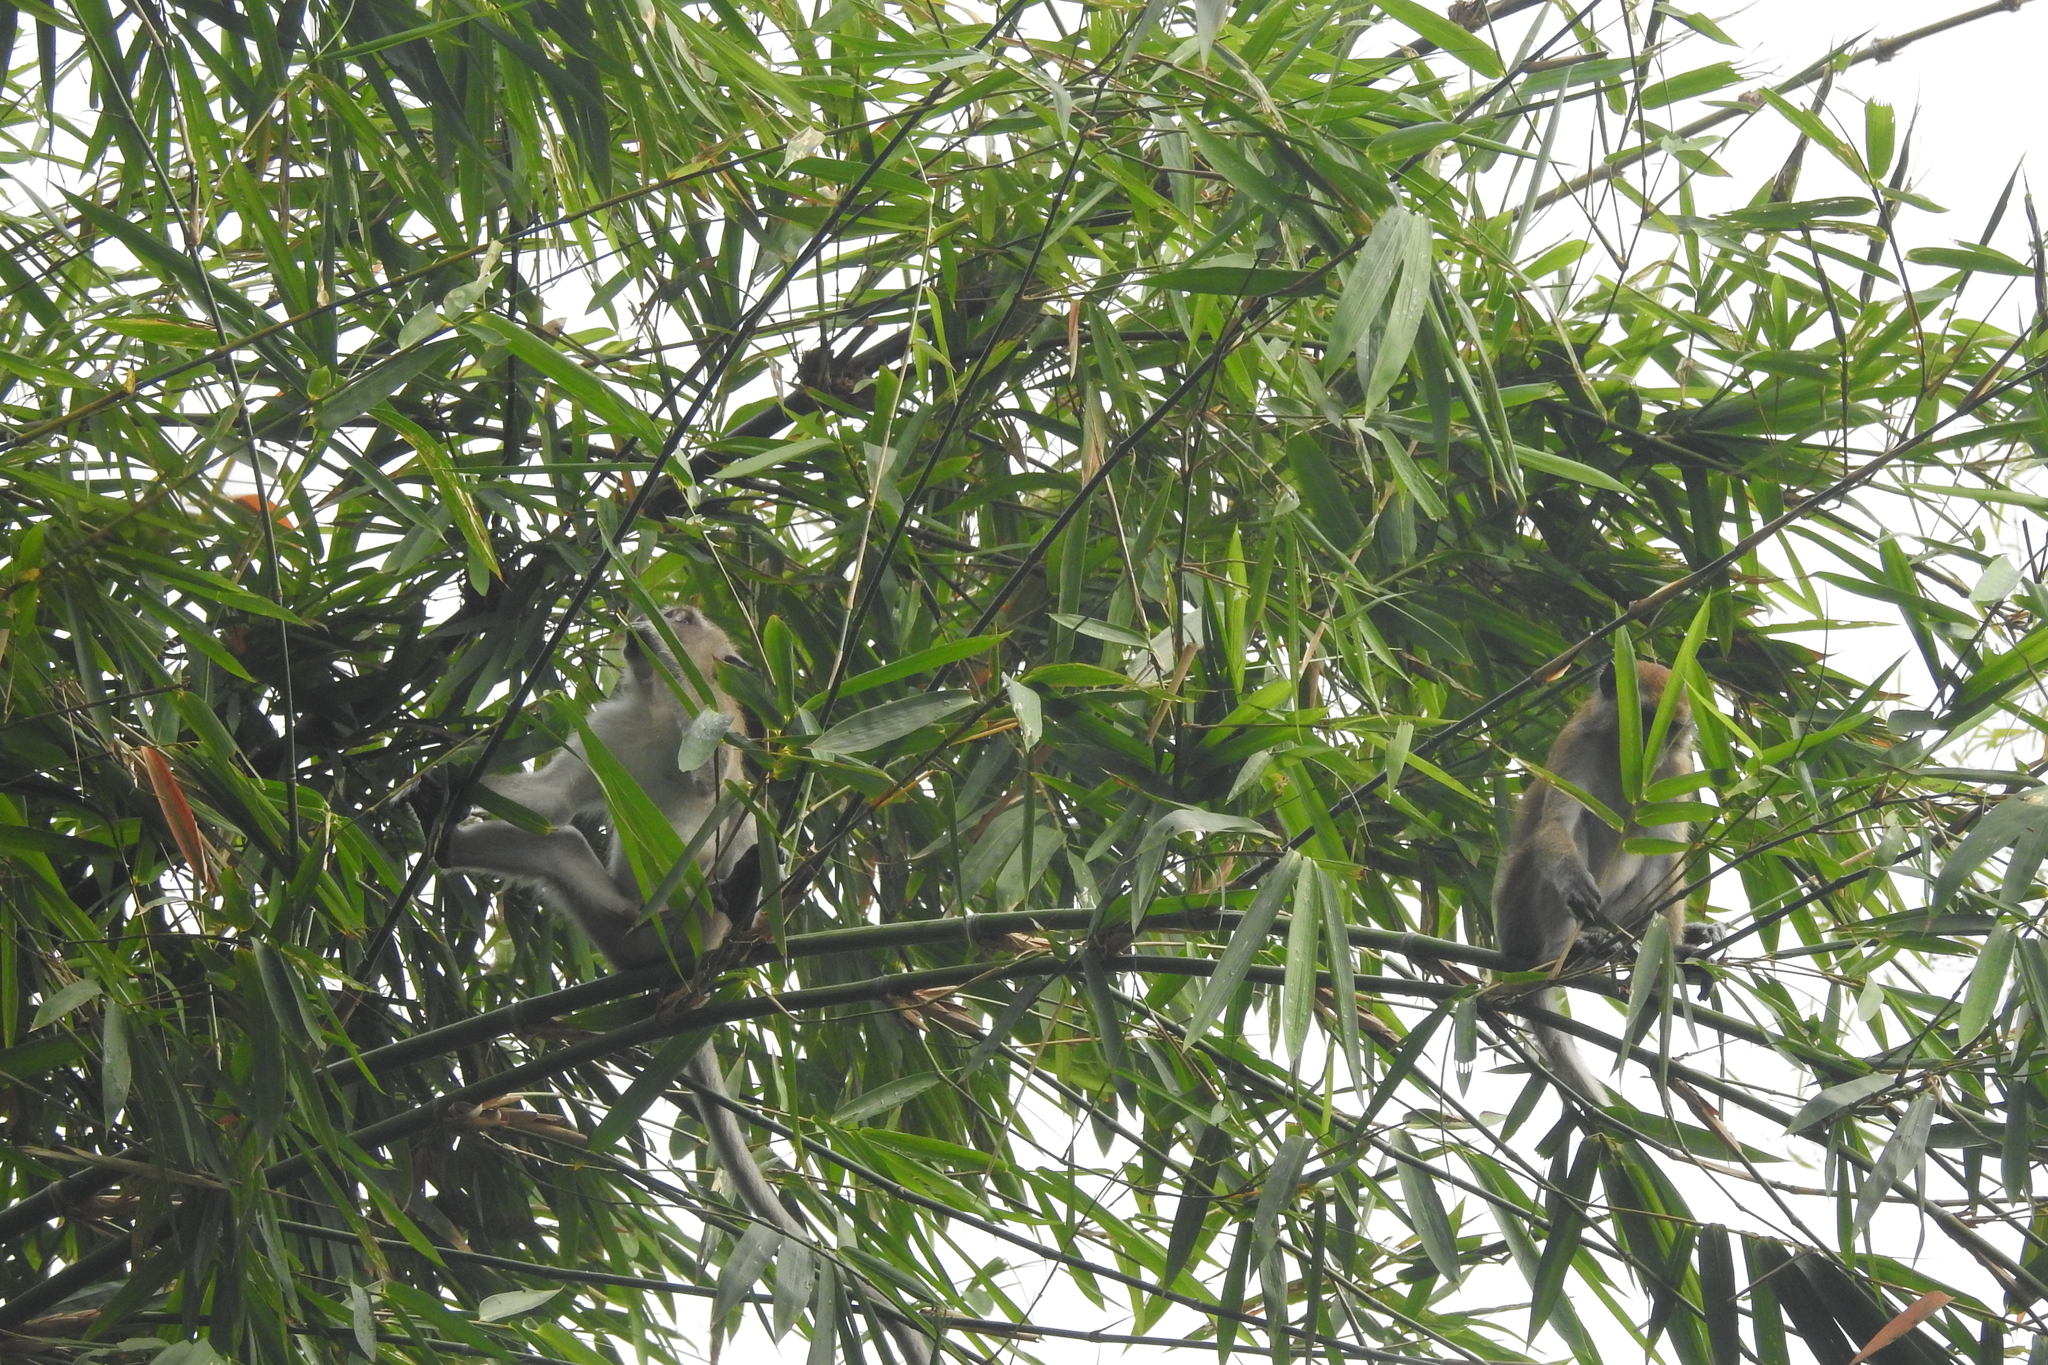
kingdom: Animalia
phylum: Chordata
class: Mammalia
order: Primates
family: Cercopithecidae
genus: Macaca
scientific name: Macaca fascicularis
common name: Crab-eating macaque
